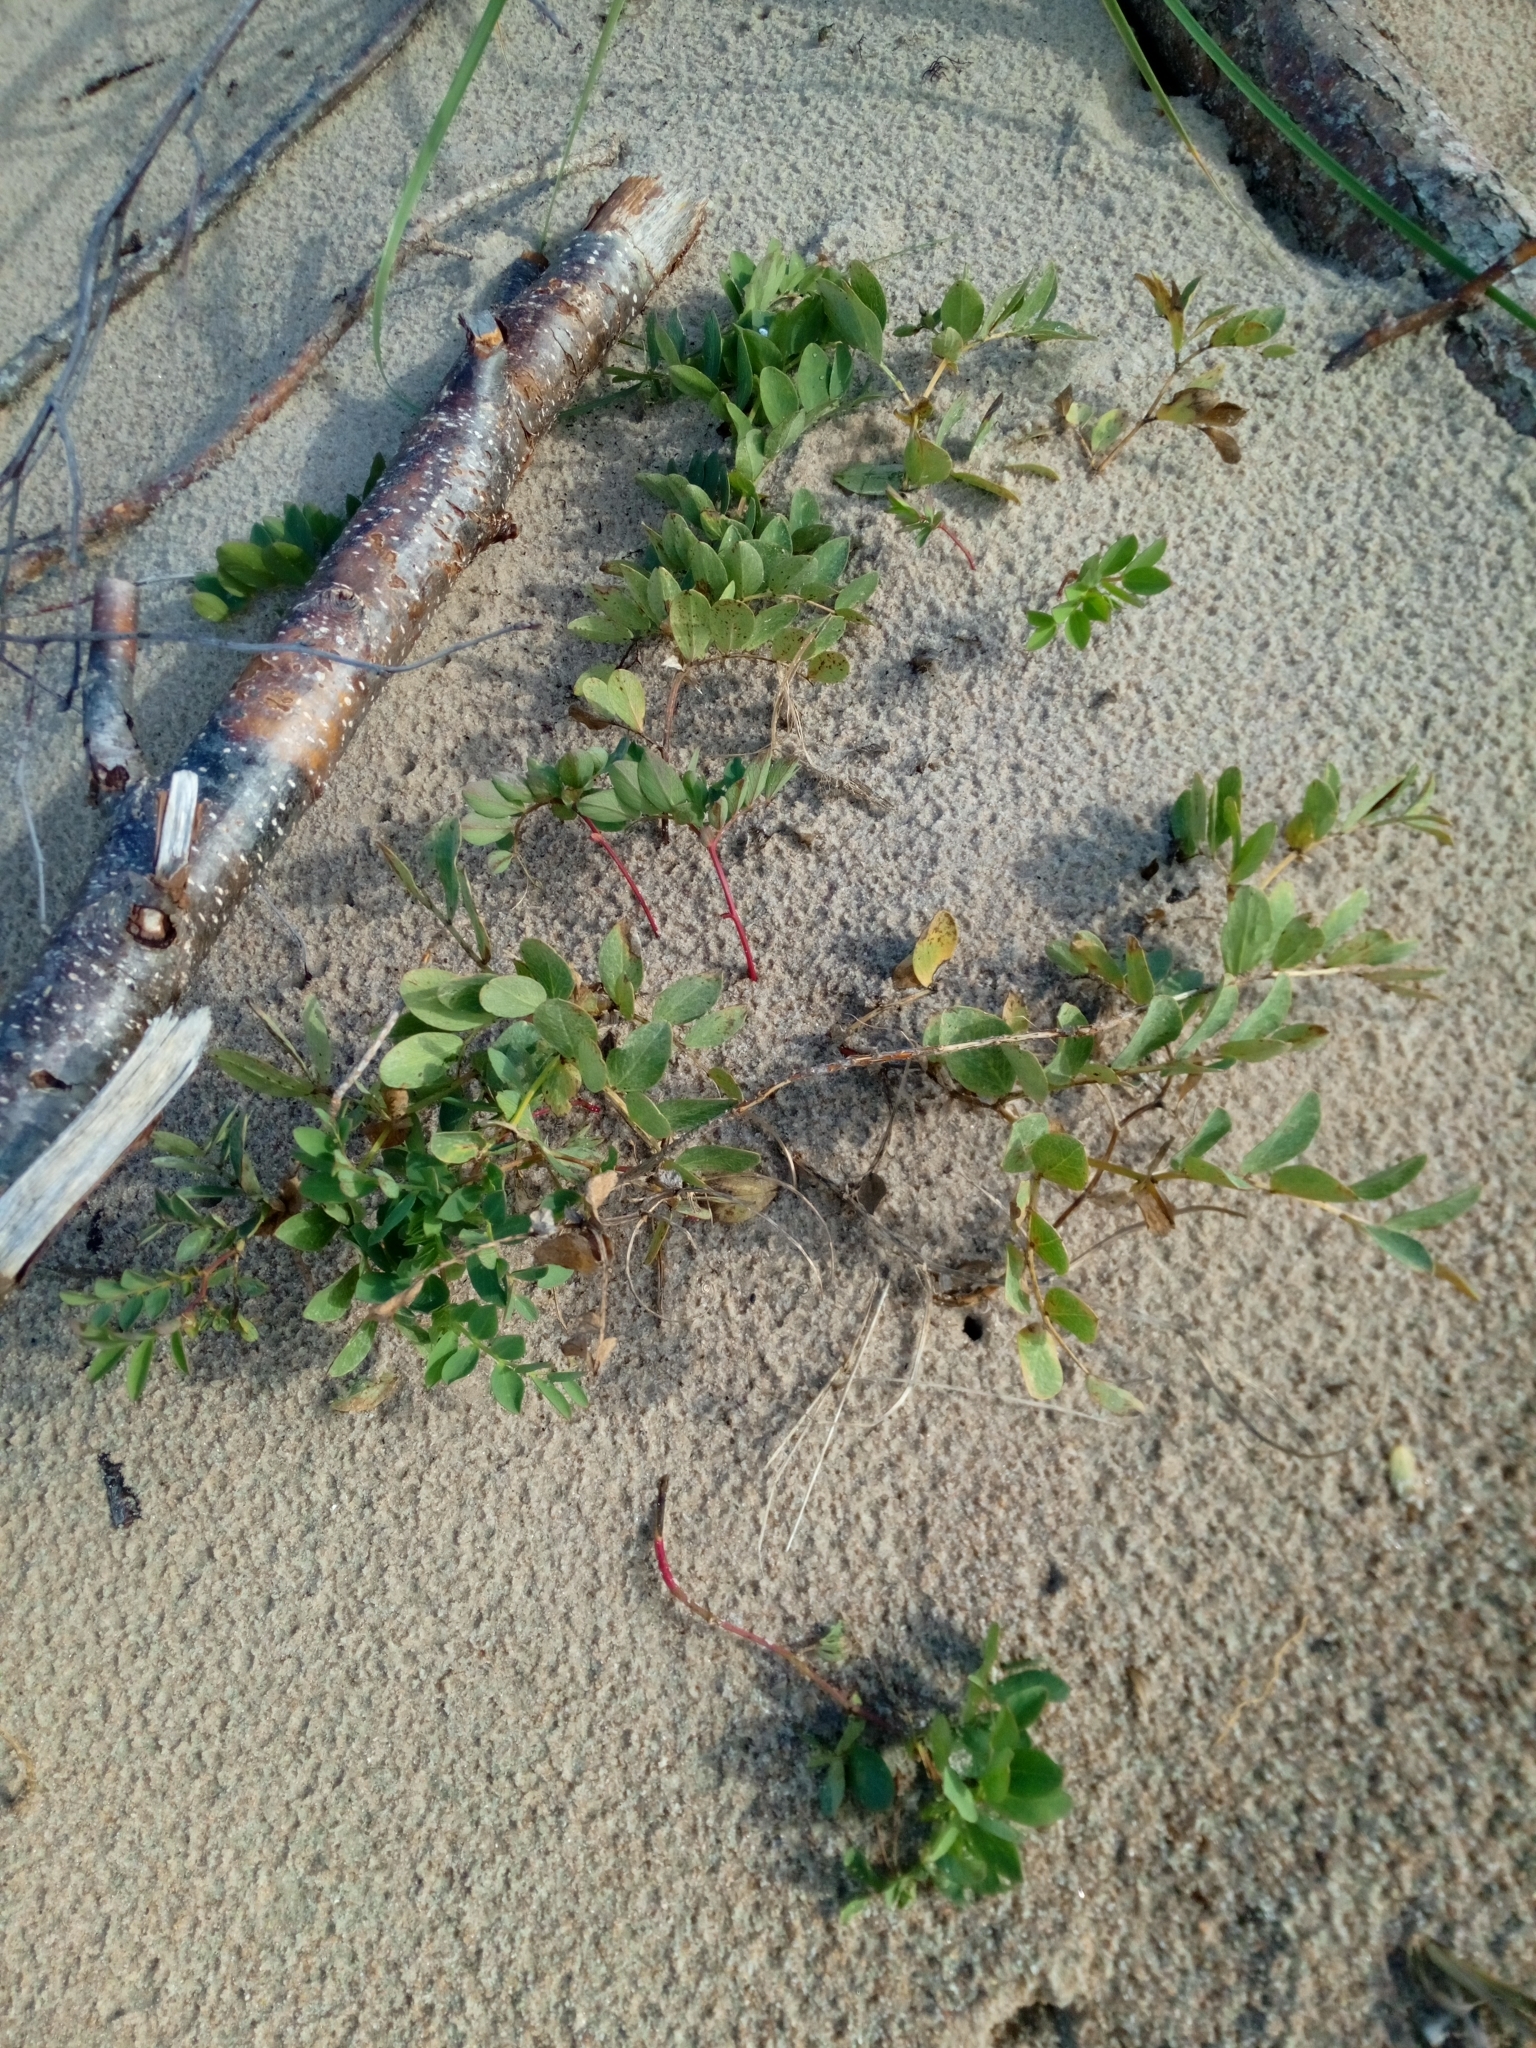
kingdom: Plantae
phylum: Tracheophyta
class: Magnoliopsida
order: Fabales
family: Fabaceae
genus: Lathyrus
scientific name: Lathyrus japonicus
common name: Sea pea
